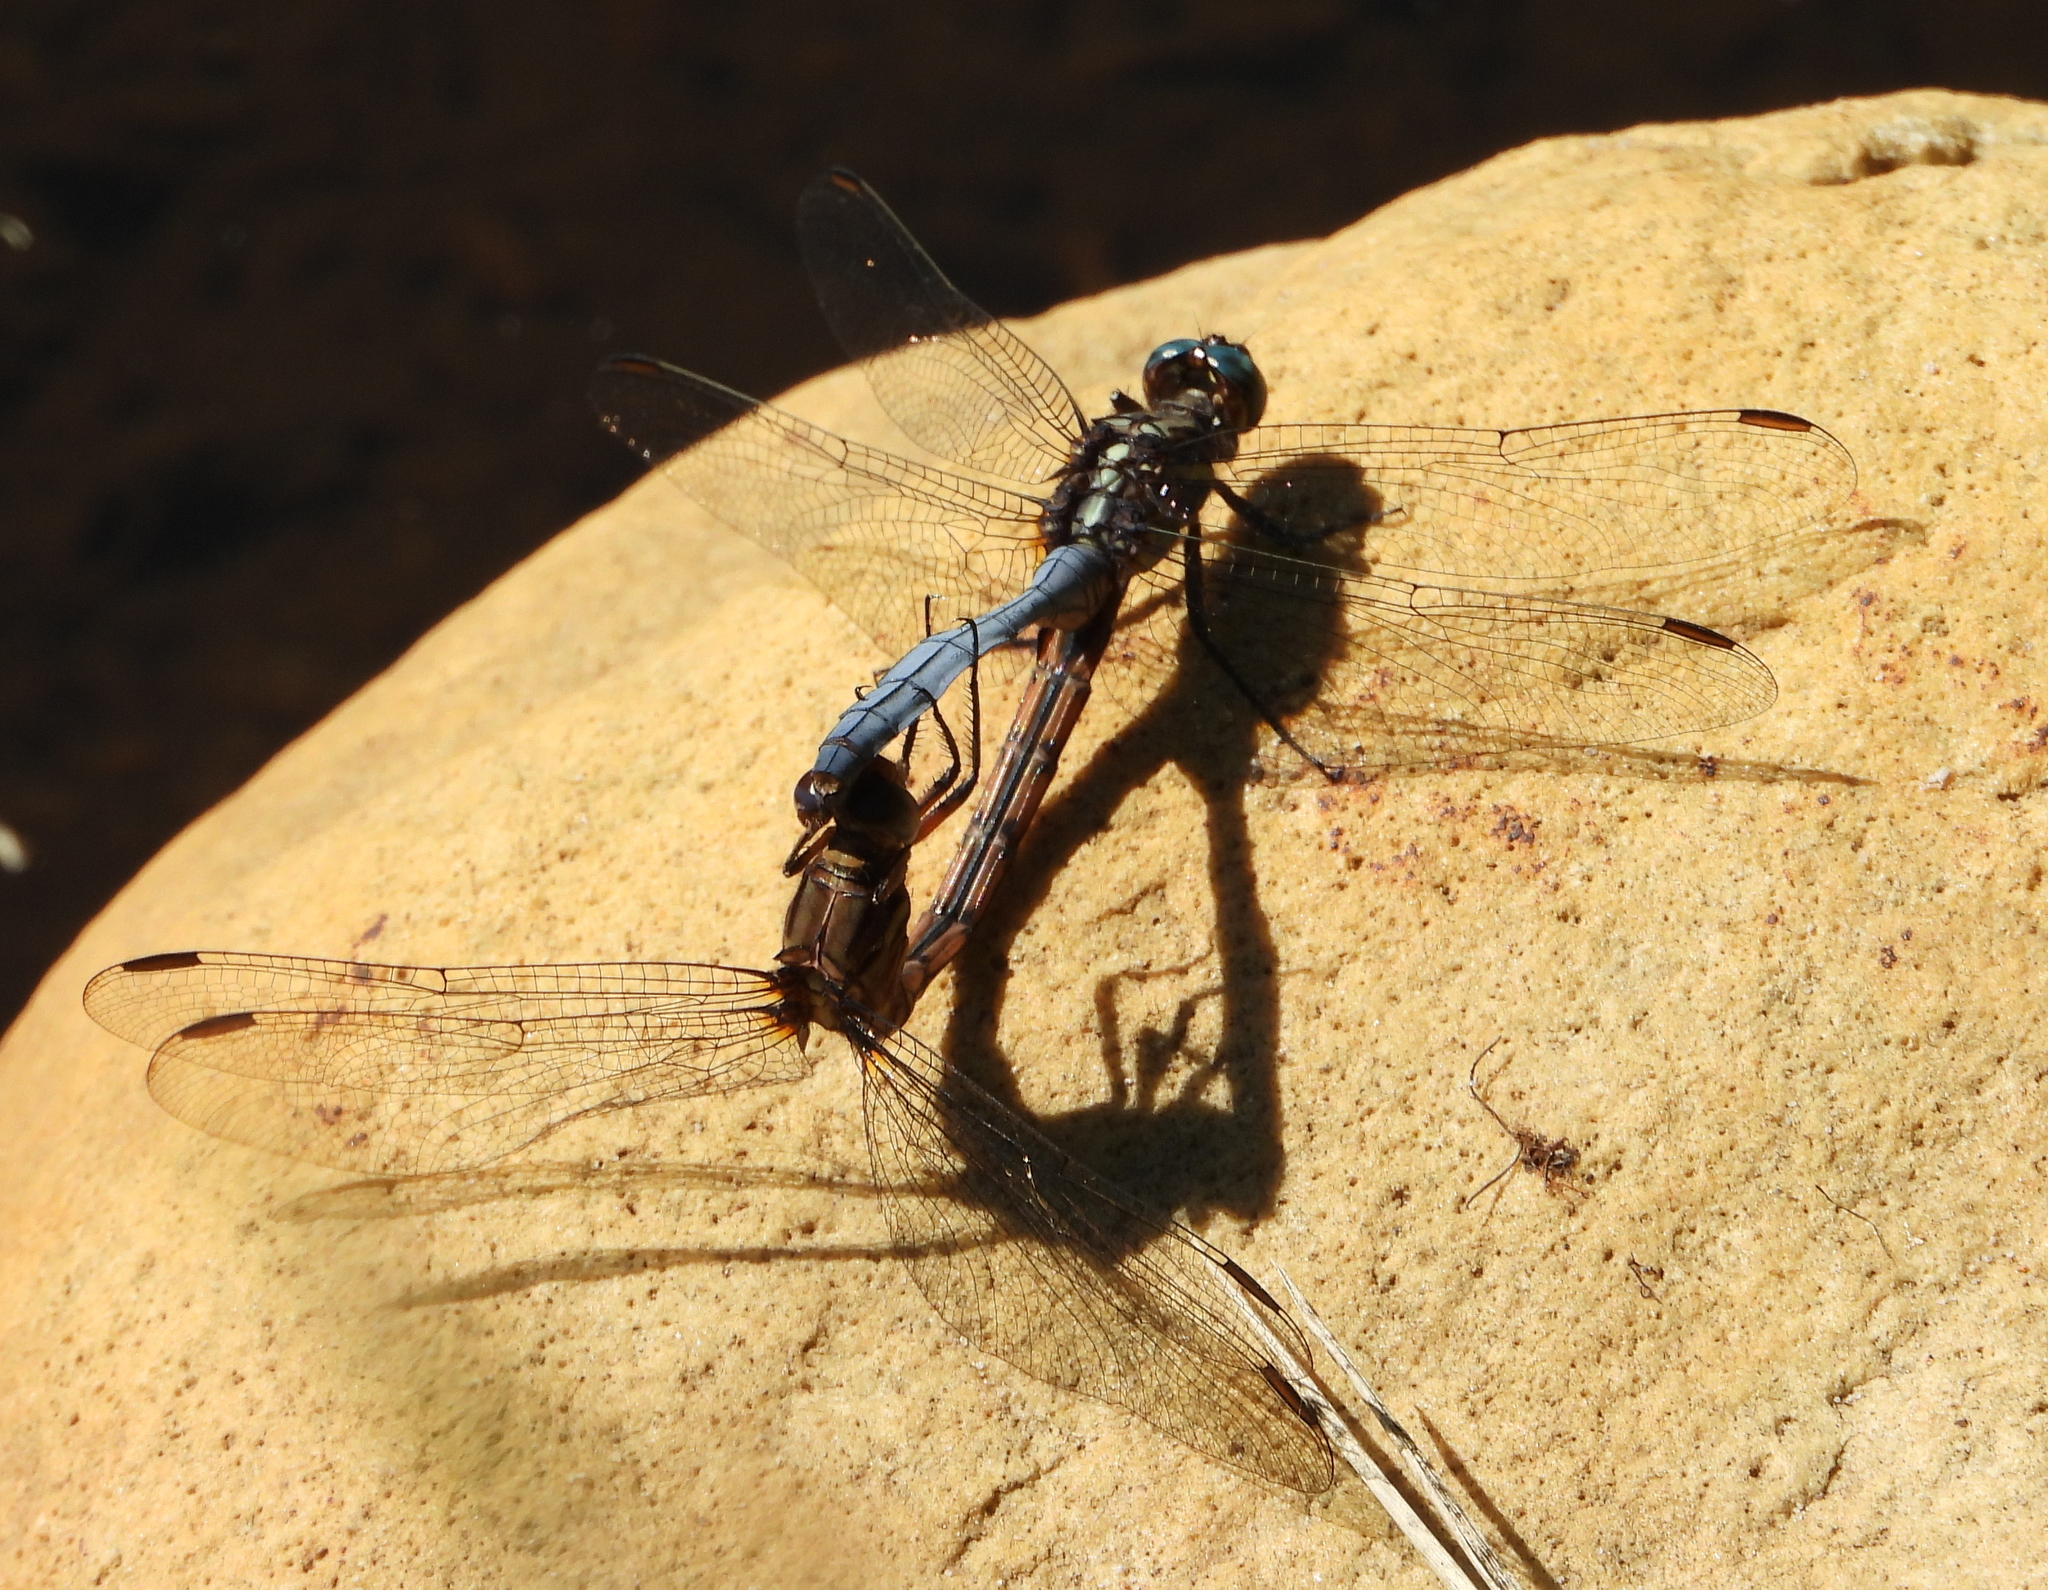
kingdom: Animalia
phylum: Arthropoda
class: Insecta
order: Odonata
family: Libellulidae
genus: Orthetrum
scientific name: Orthetrum julia
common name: Julia skimmer
